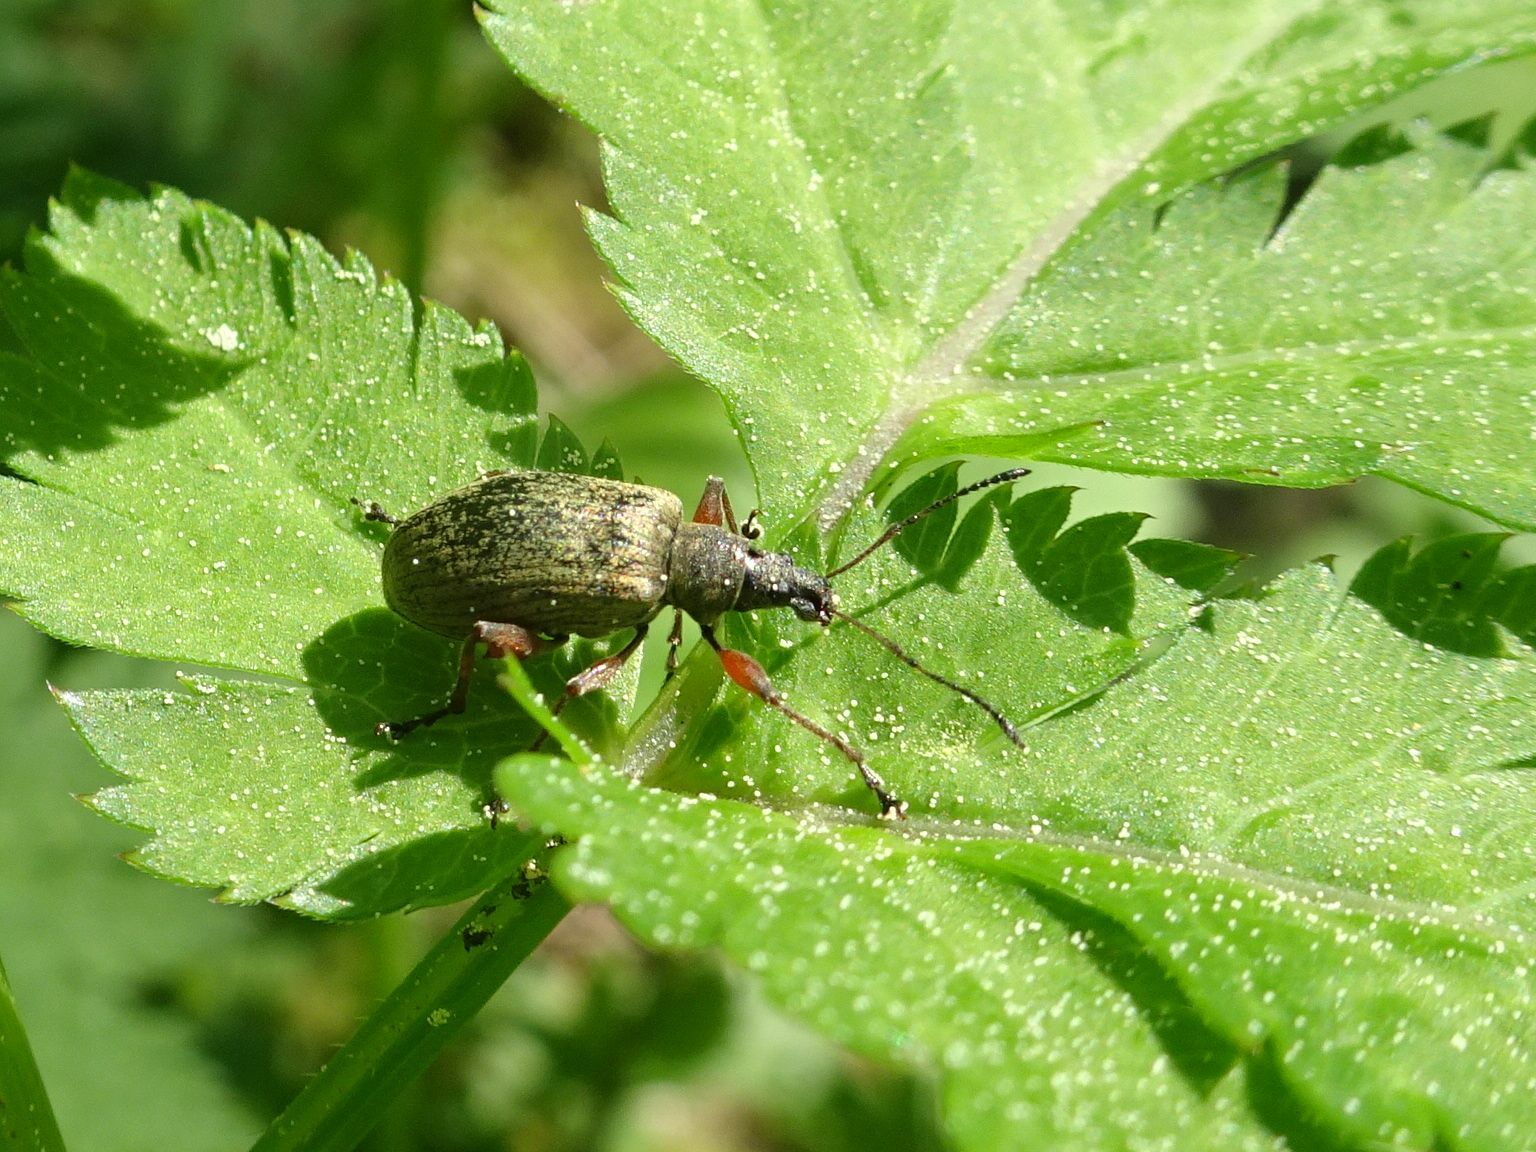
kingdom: Animalia
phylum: Arthropoda
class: Insecta
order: Coleoptera
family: Curculionidae
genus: Phyllobius
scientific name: Phyllobius glaucus
